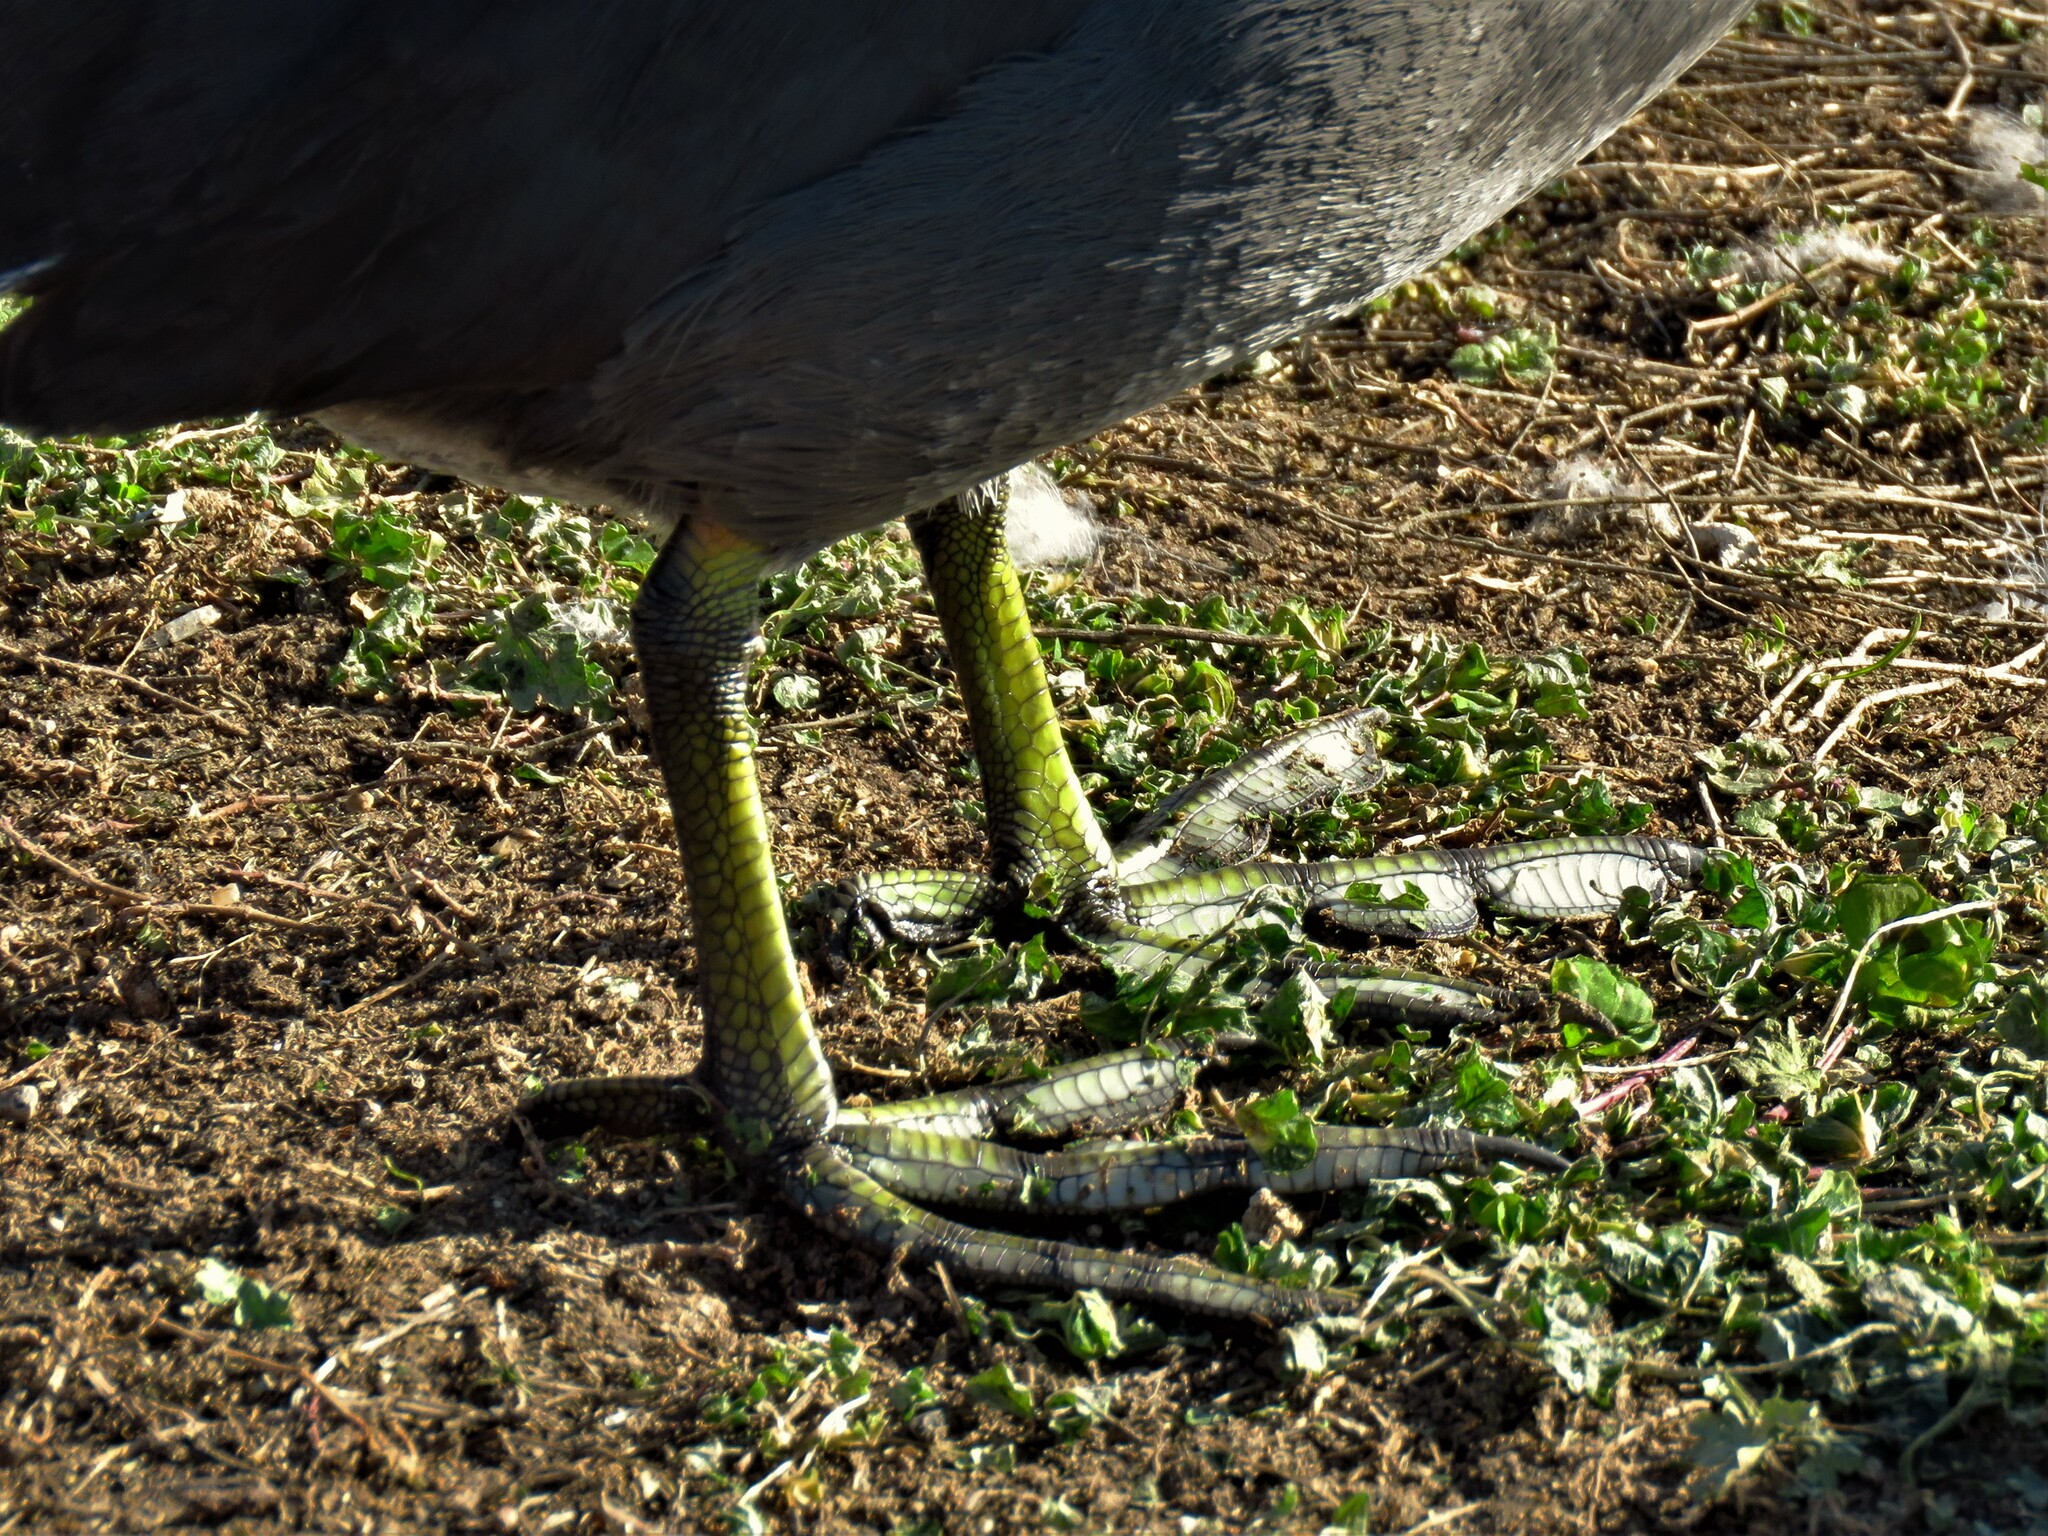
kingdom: Animalia
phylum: Chordata
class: Aves
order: Gruiformes
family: Rallidae
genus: Fulica
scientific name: Fulica americana
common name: American coot
